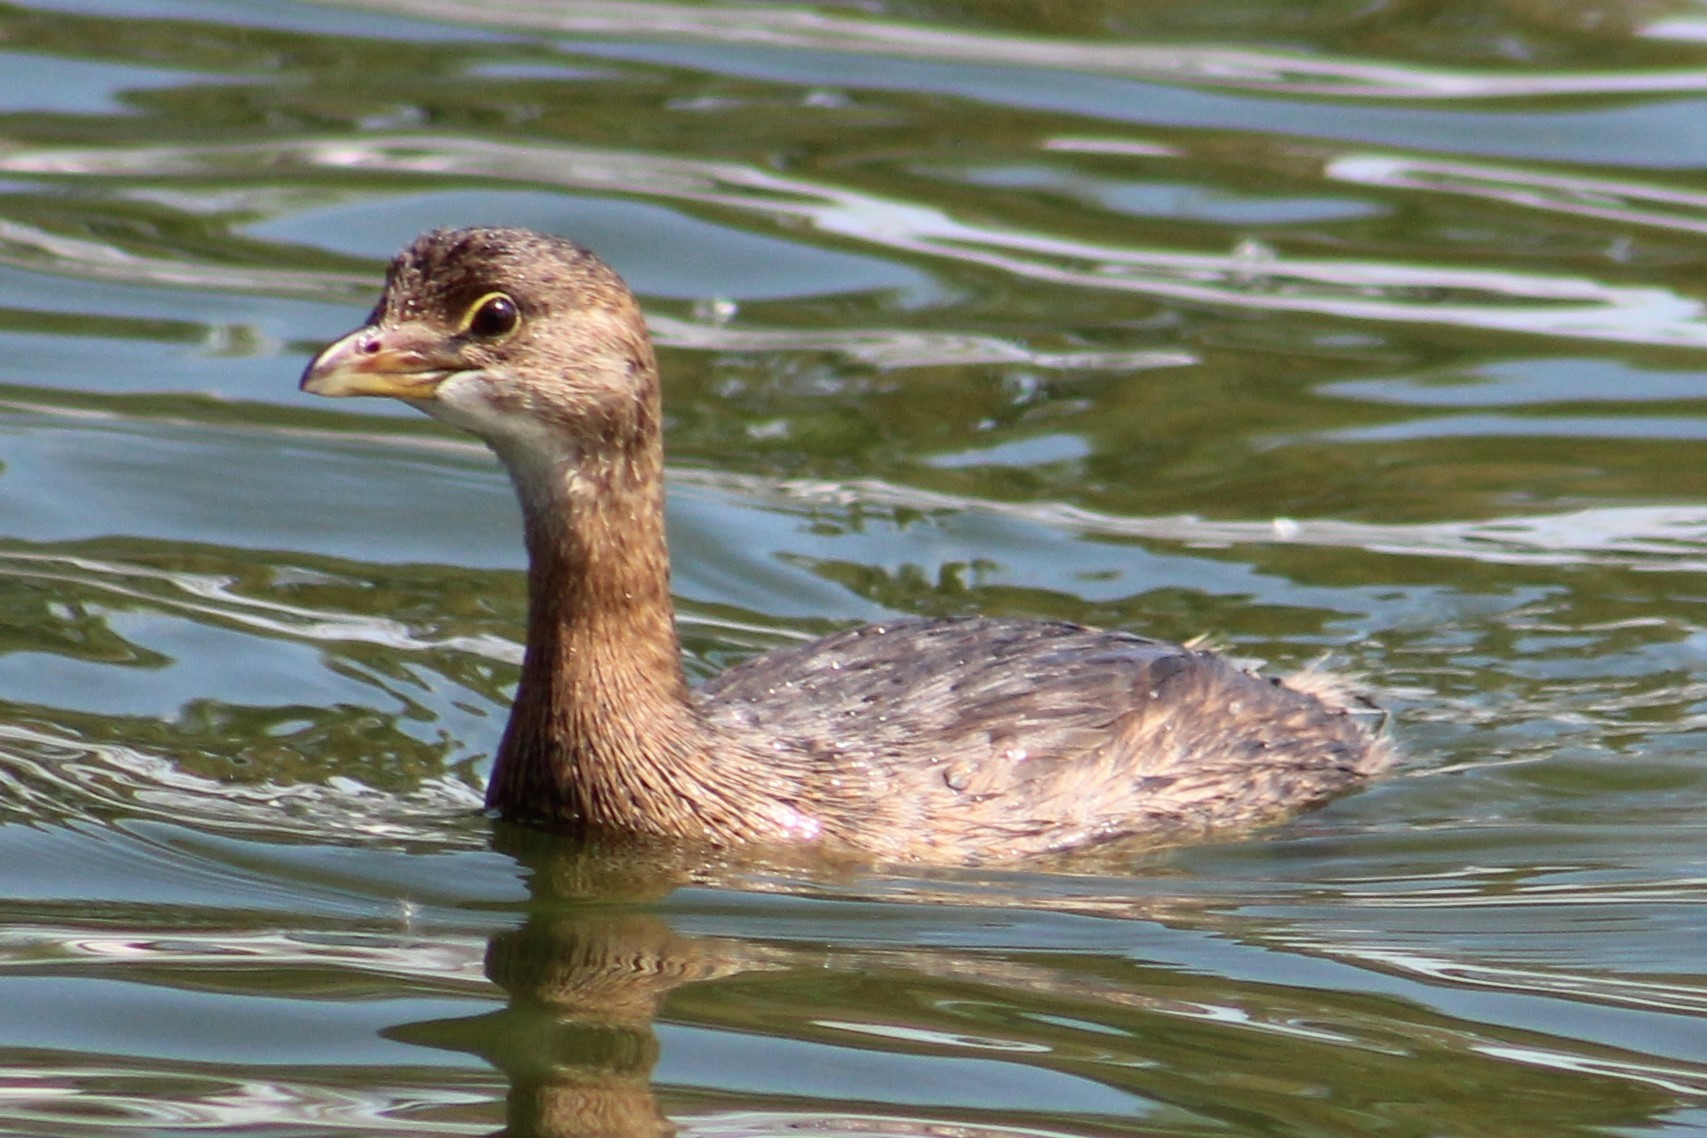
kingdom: Animalia
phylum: Chordata
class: Aves
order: Podicipediformes
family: Podicipedidae
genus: Podilymbus
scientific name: Podilymbus podiceps
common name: Pied-billed grebe
